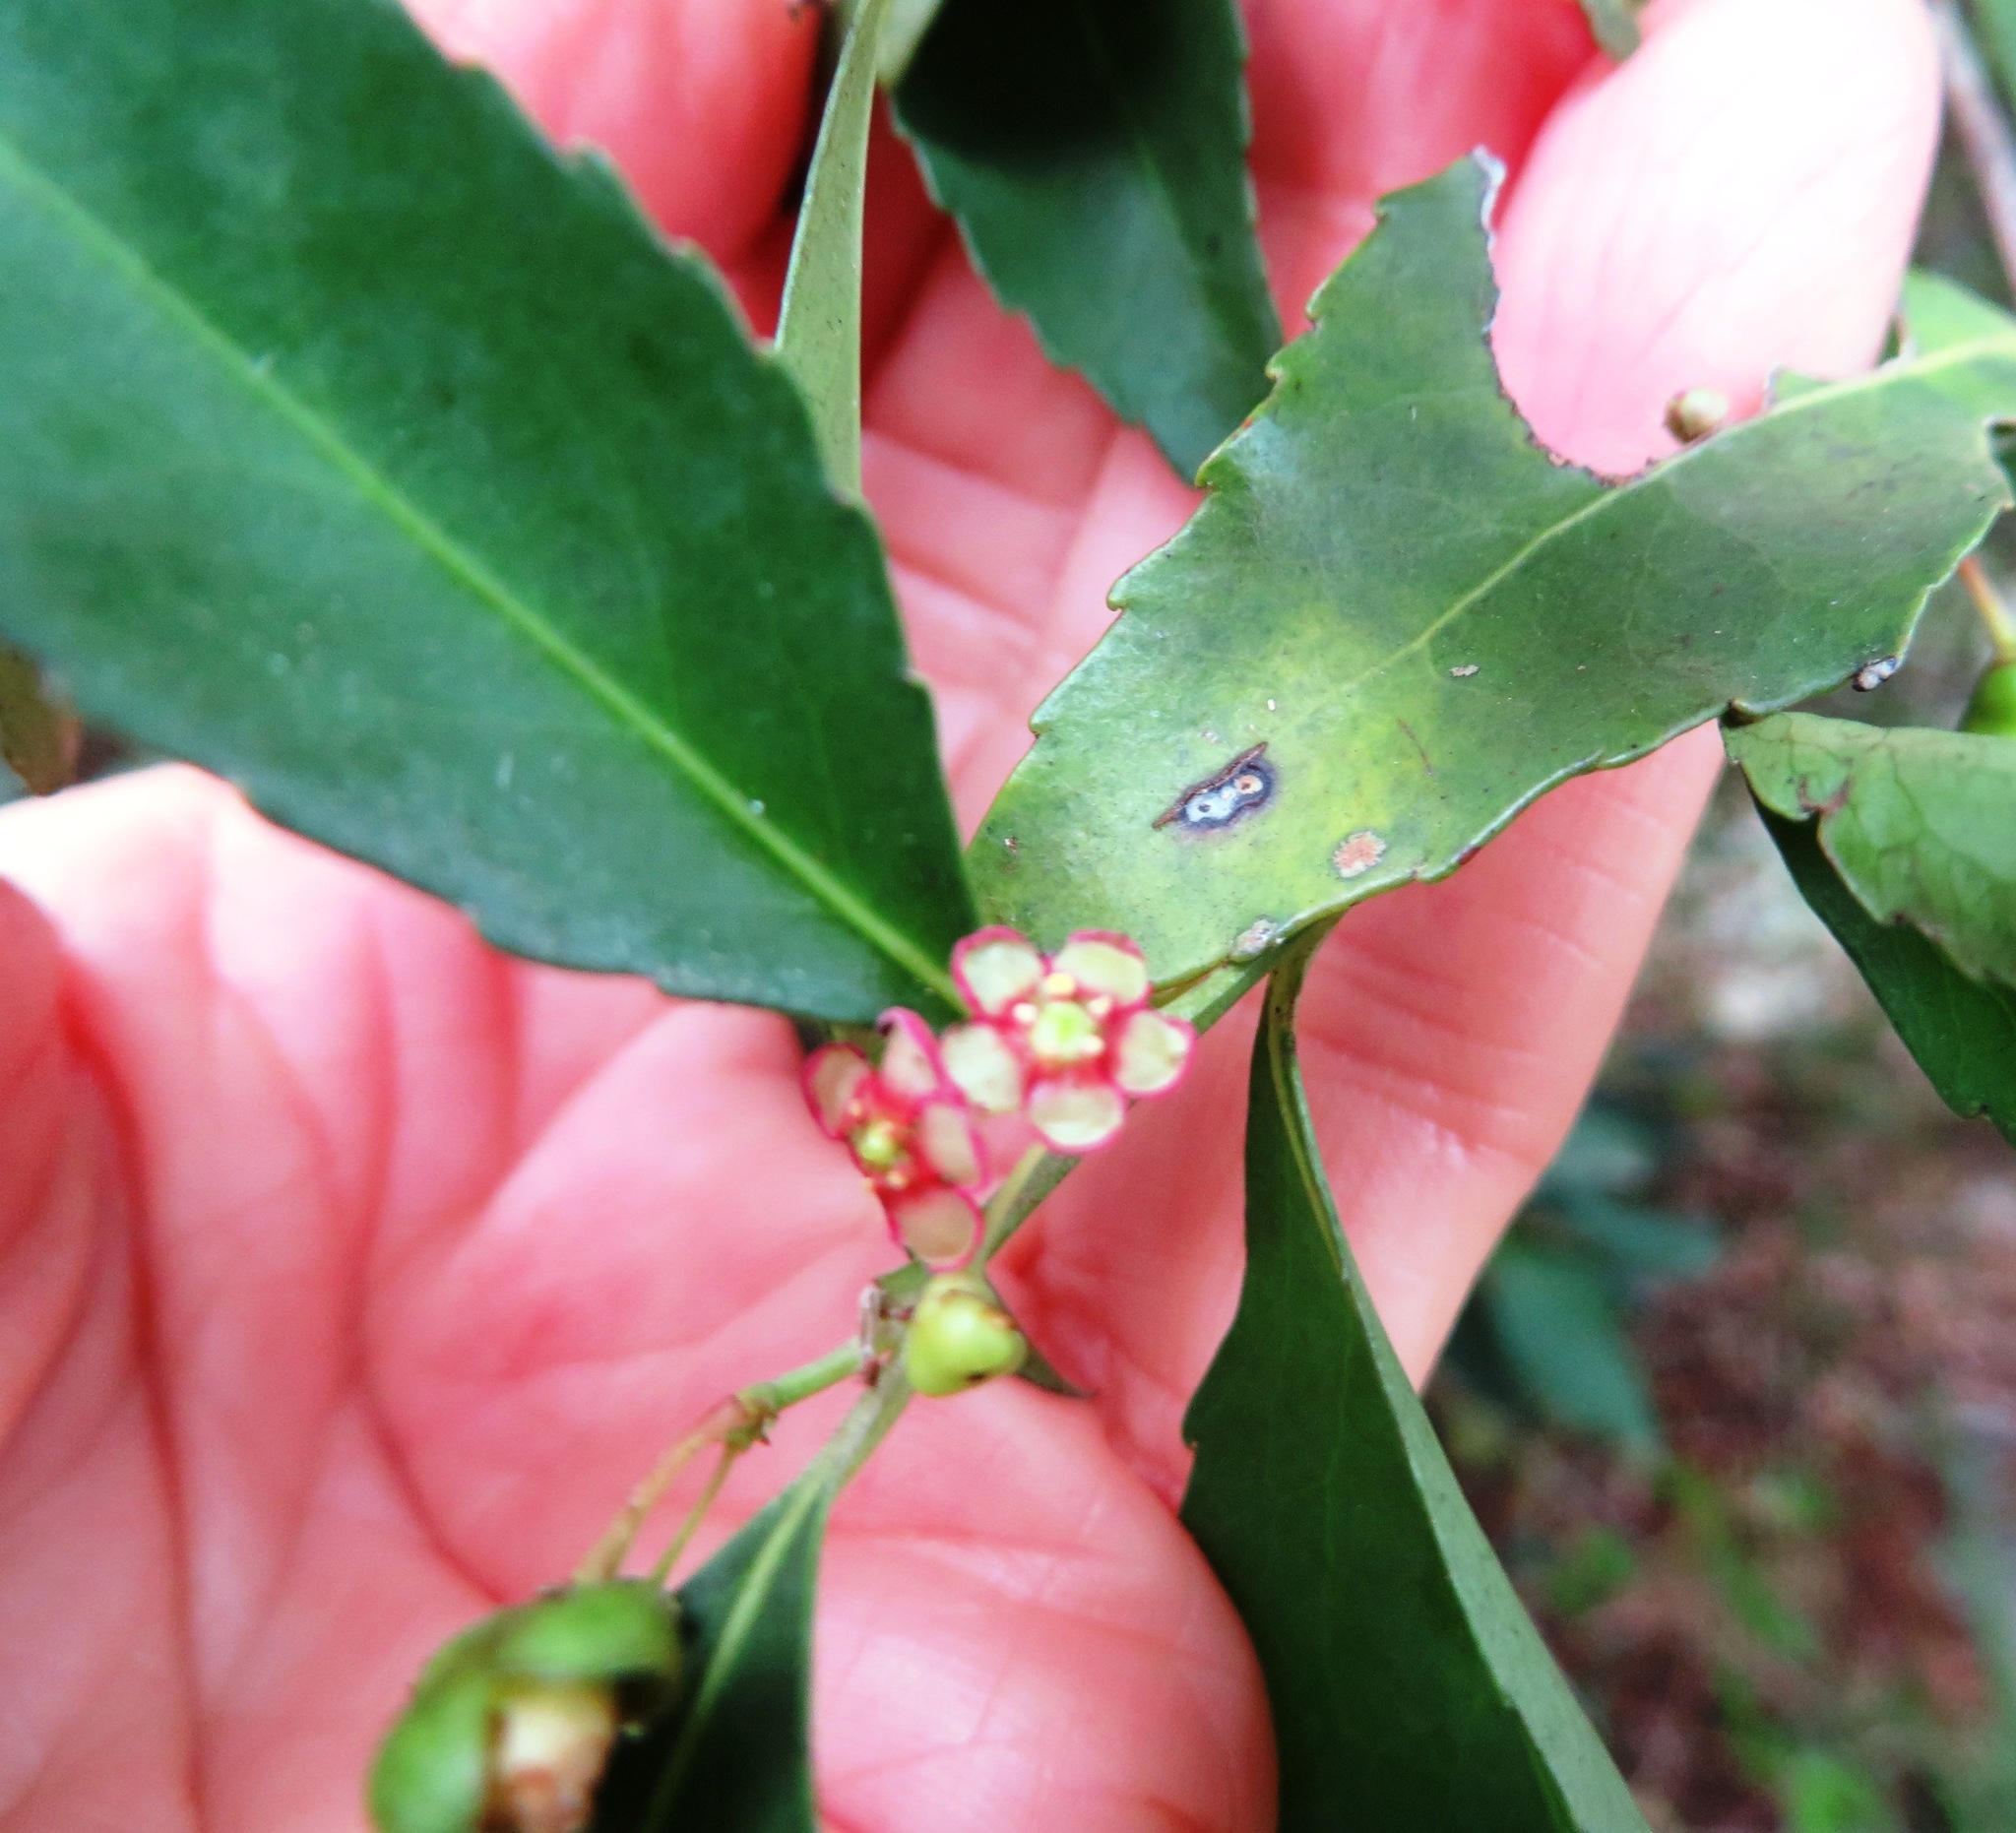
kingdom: Plantae
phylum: Tracheophyta
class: Magnoliopsida
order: Celastrales
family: Celastraceae
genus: Gymnosporia
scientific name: Gymnosporia acuminata
